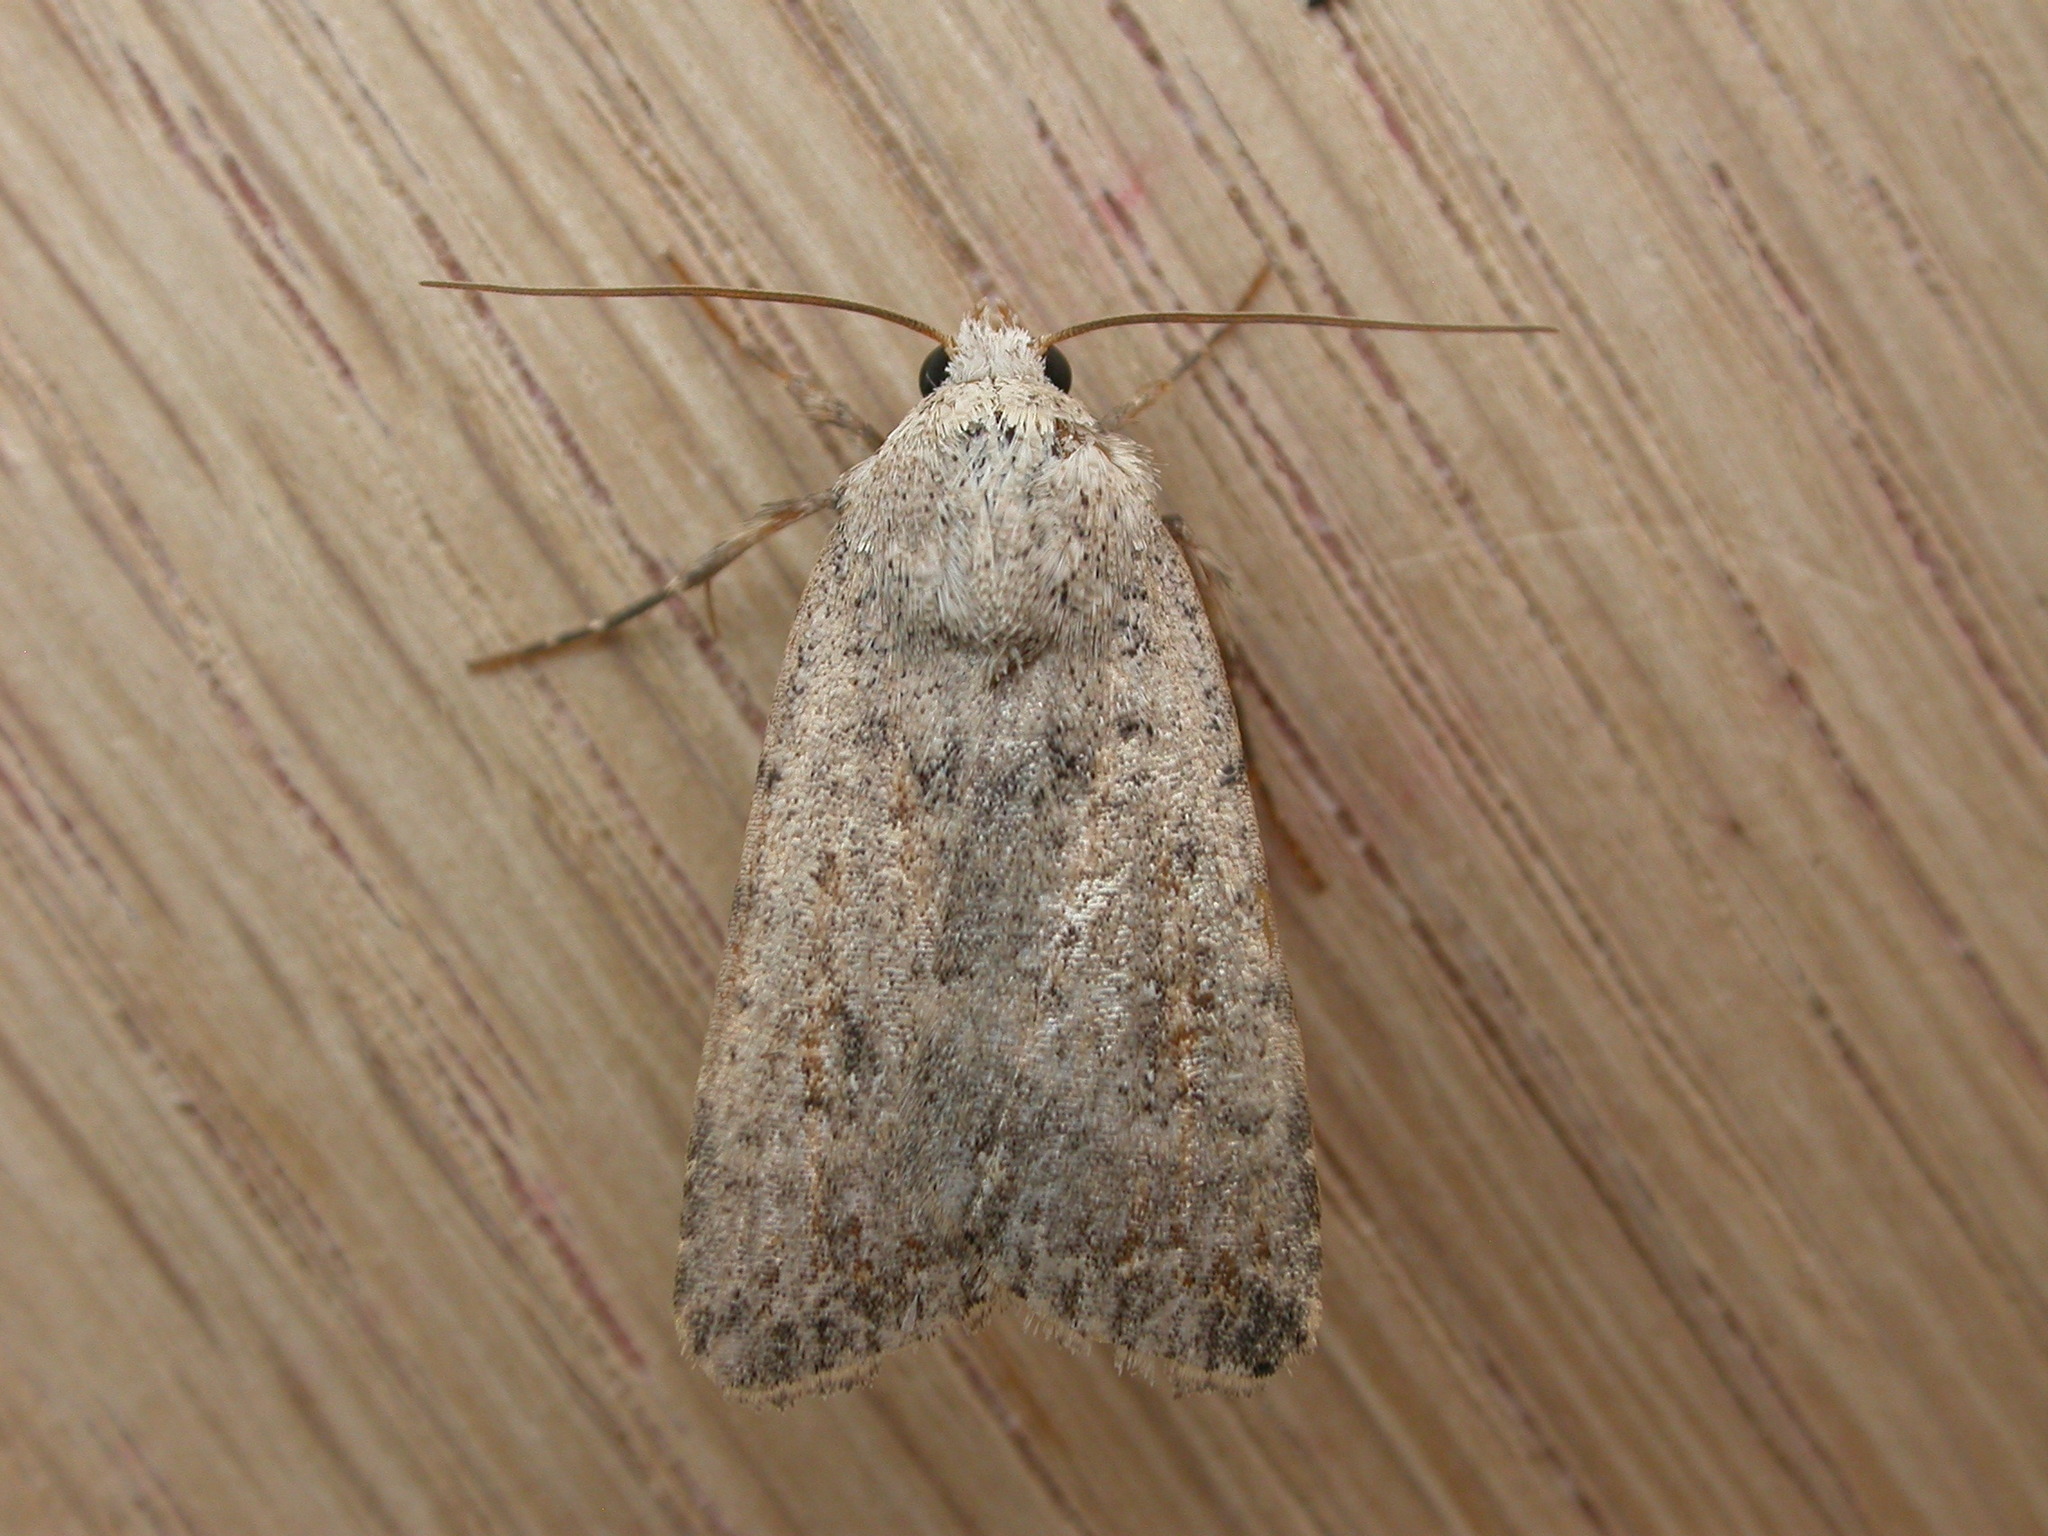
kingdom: Animalia
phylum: Arthropoda
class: Insecta
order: Lepidoptera
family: Noctuidae
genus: Caradrina
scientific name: Caradrina clavipalpis
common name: Pale mottled willow
